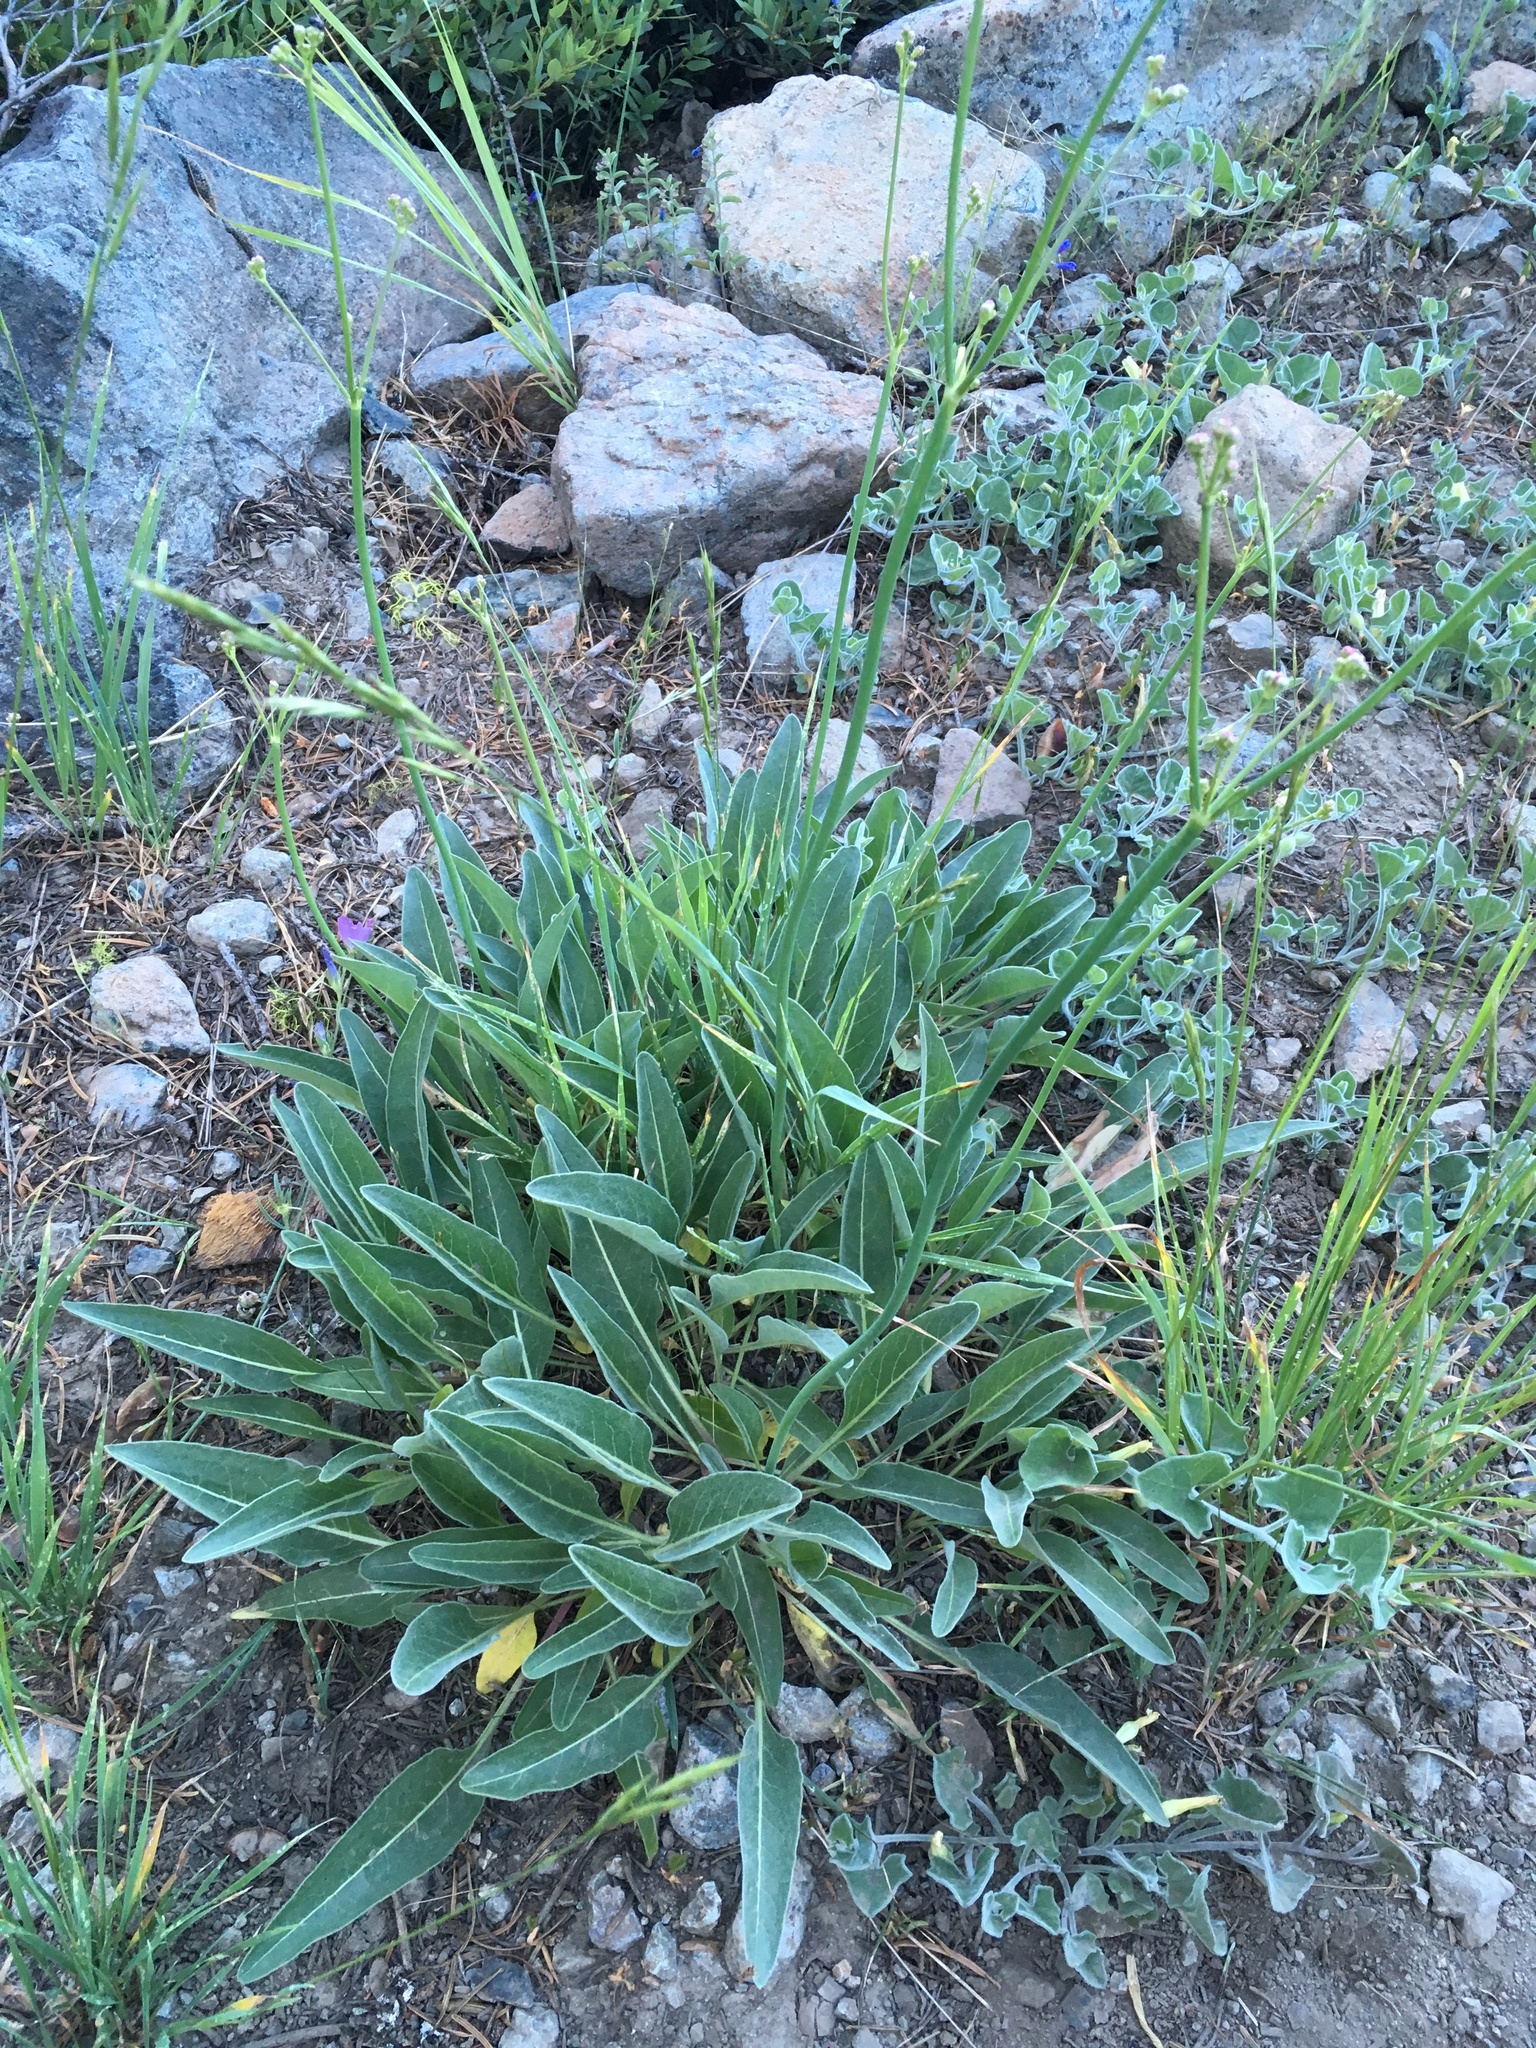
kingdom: Plantae
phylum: Tracheophyta
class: Magnoliopsida
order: Caryophyllales
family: Polygonaceae
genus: Eriogonum
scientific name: Eriogonum elatum
